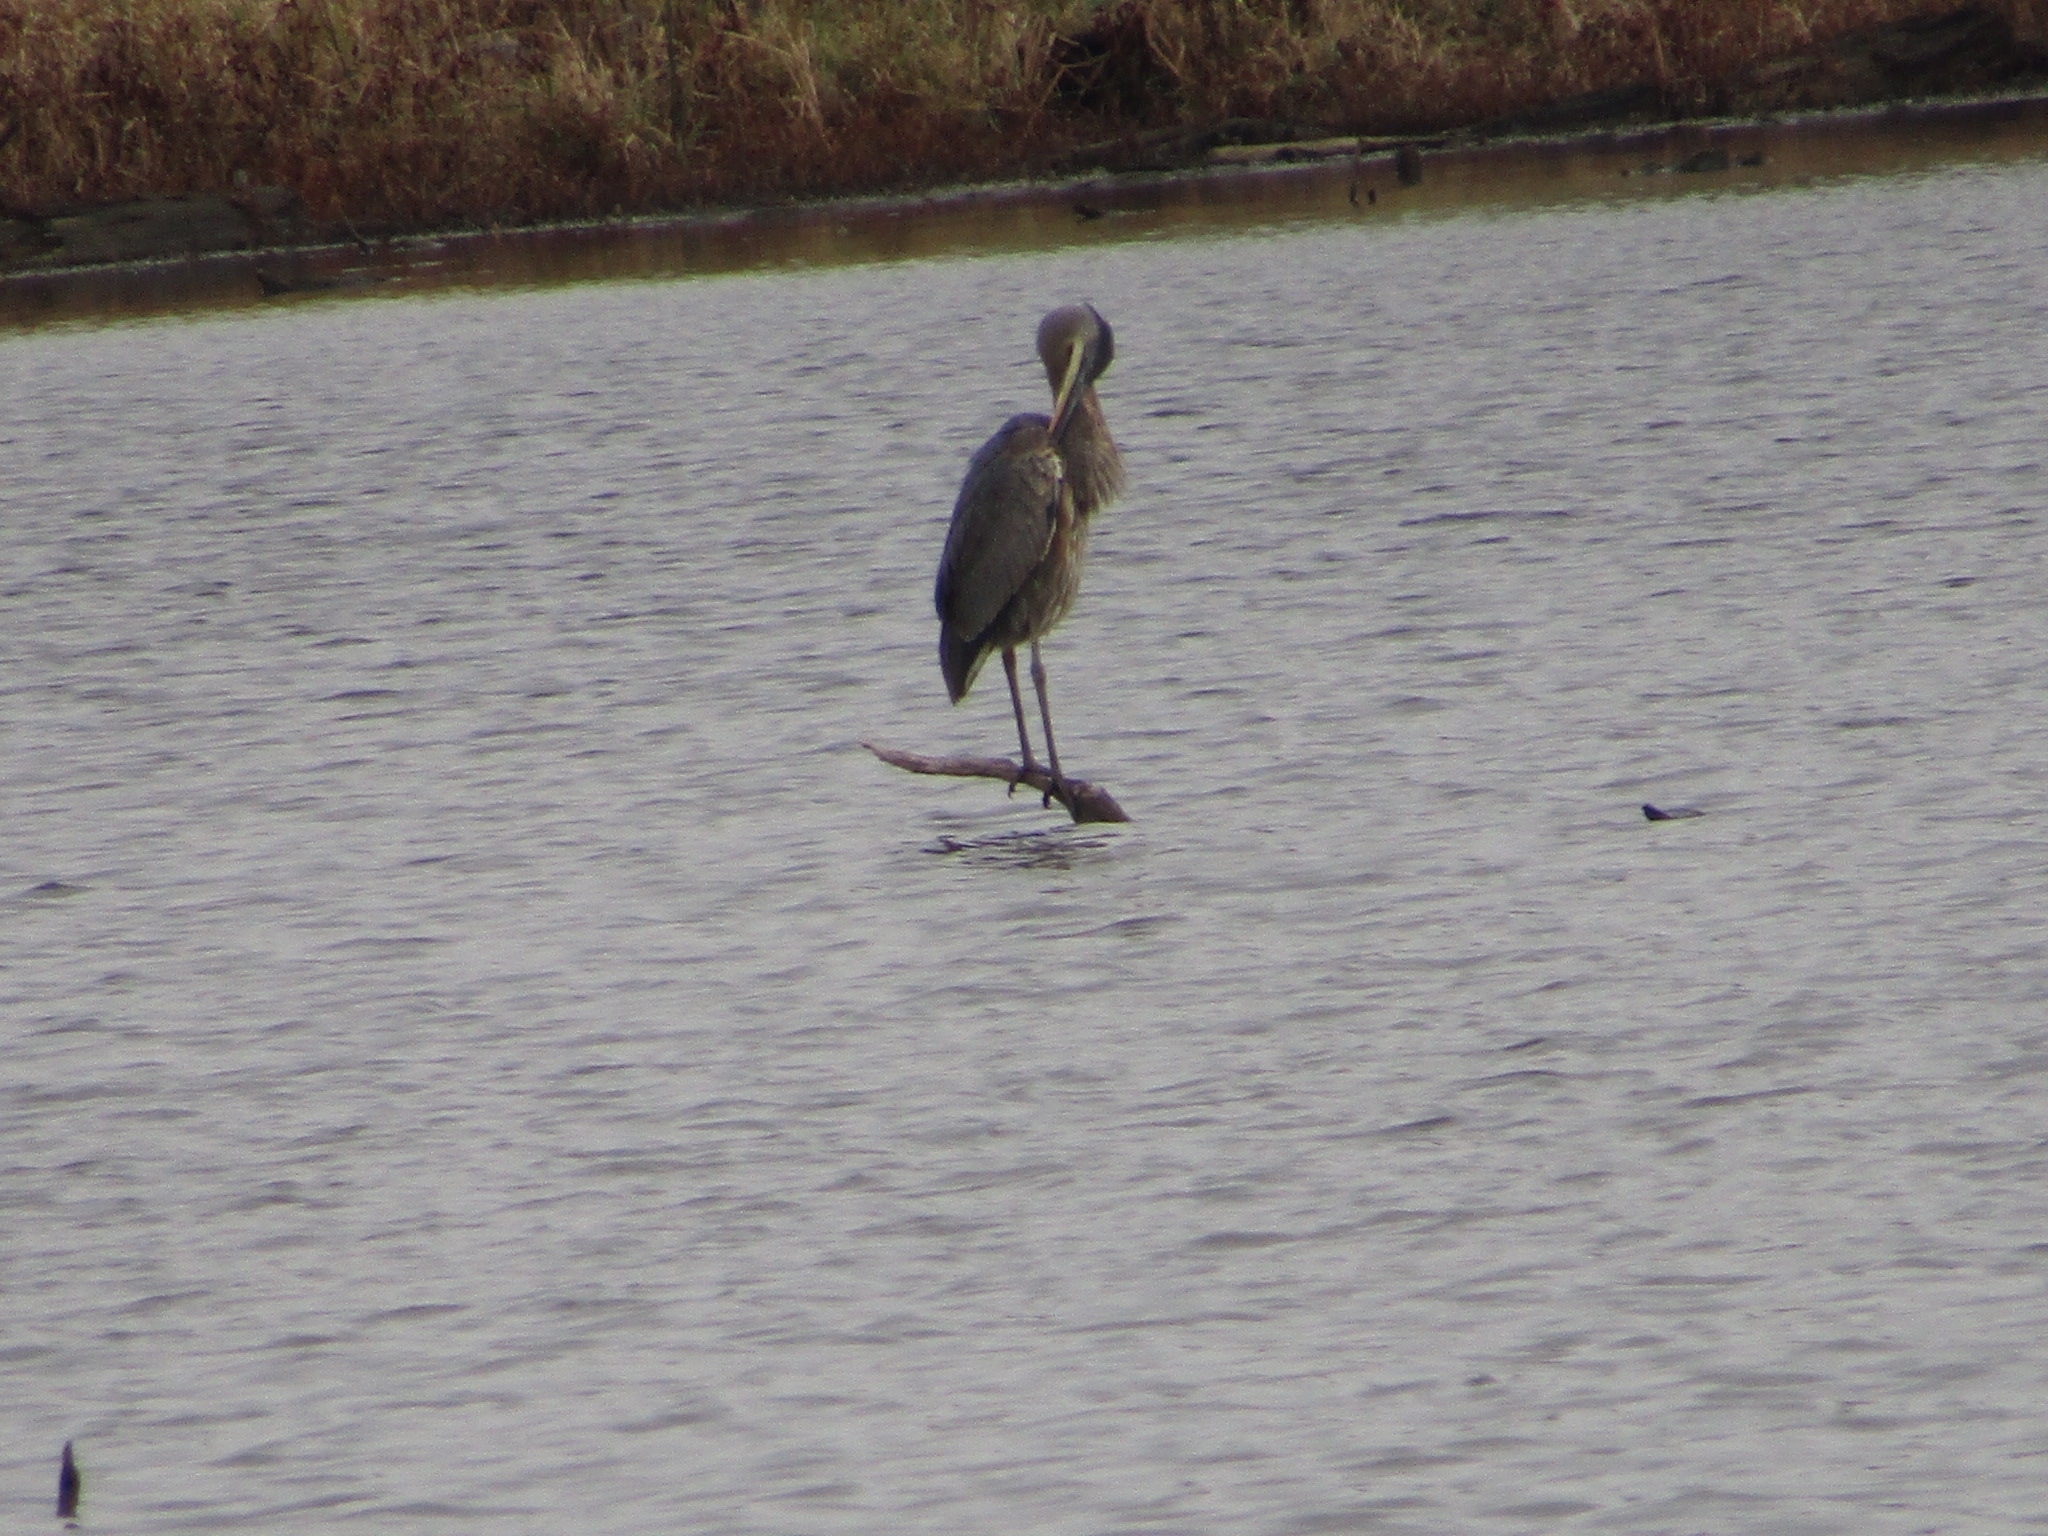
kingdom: Animalia
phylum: Chordata
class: Aves
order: Pelecaniformes
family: Ardeidae
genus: Ardea
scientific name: Ardea herodias
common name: Great blue heron
